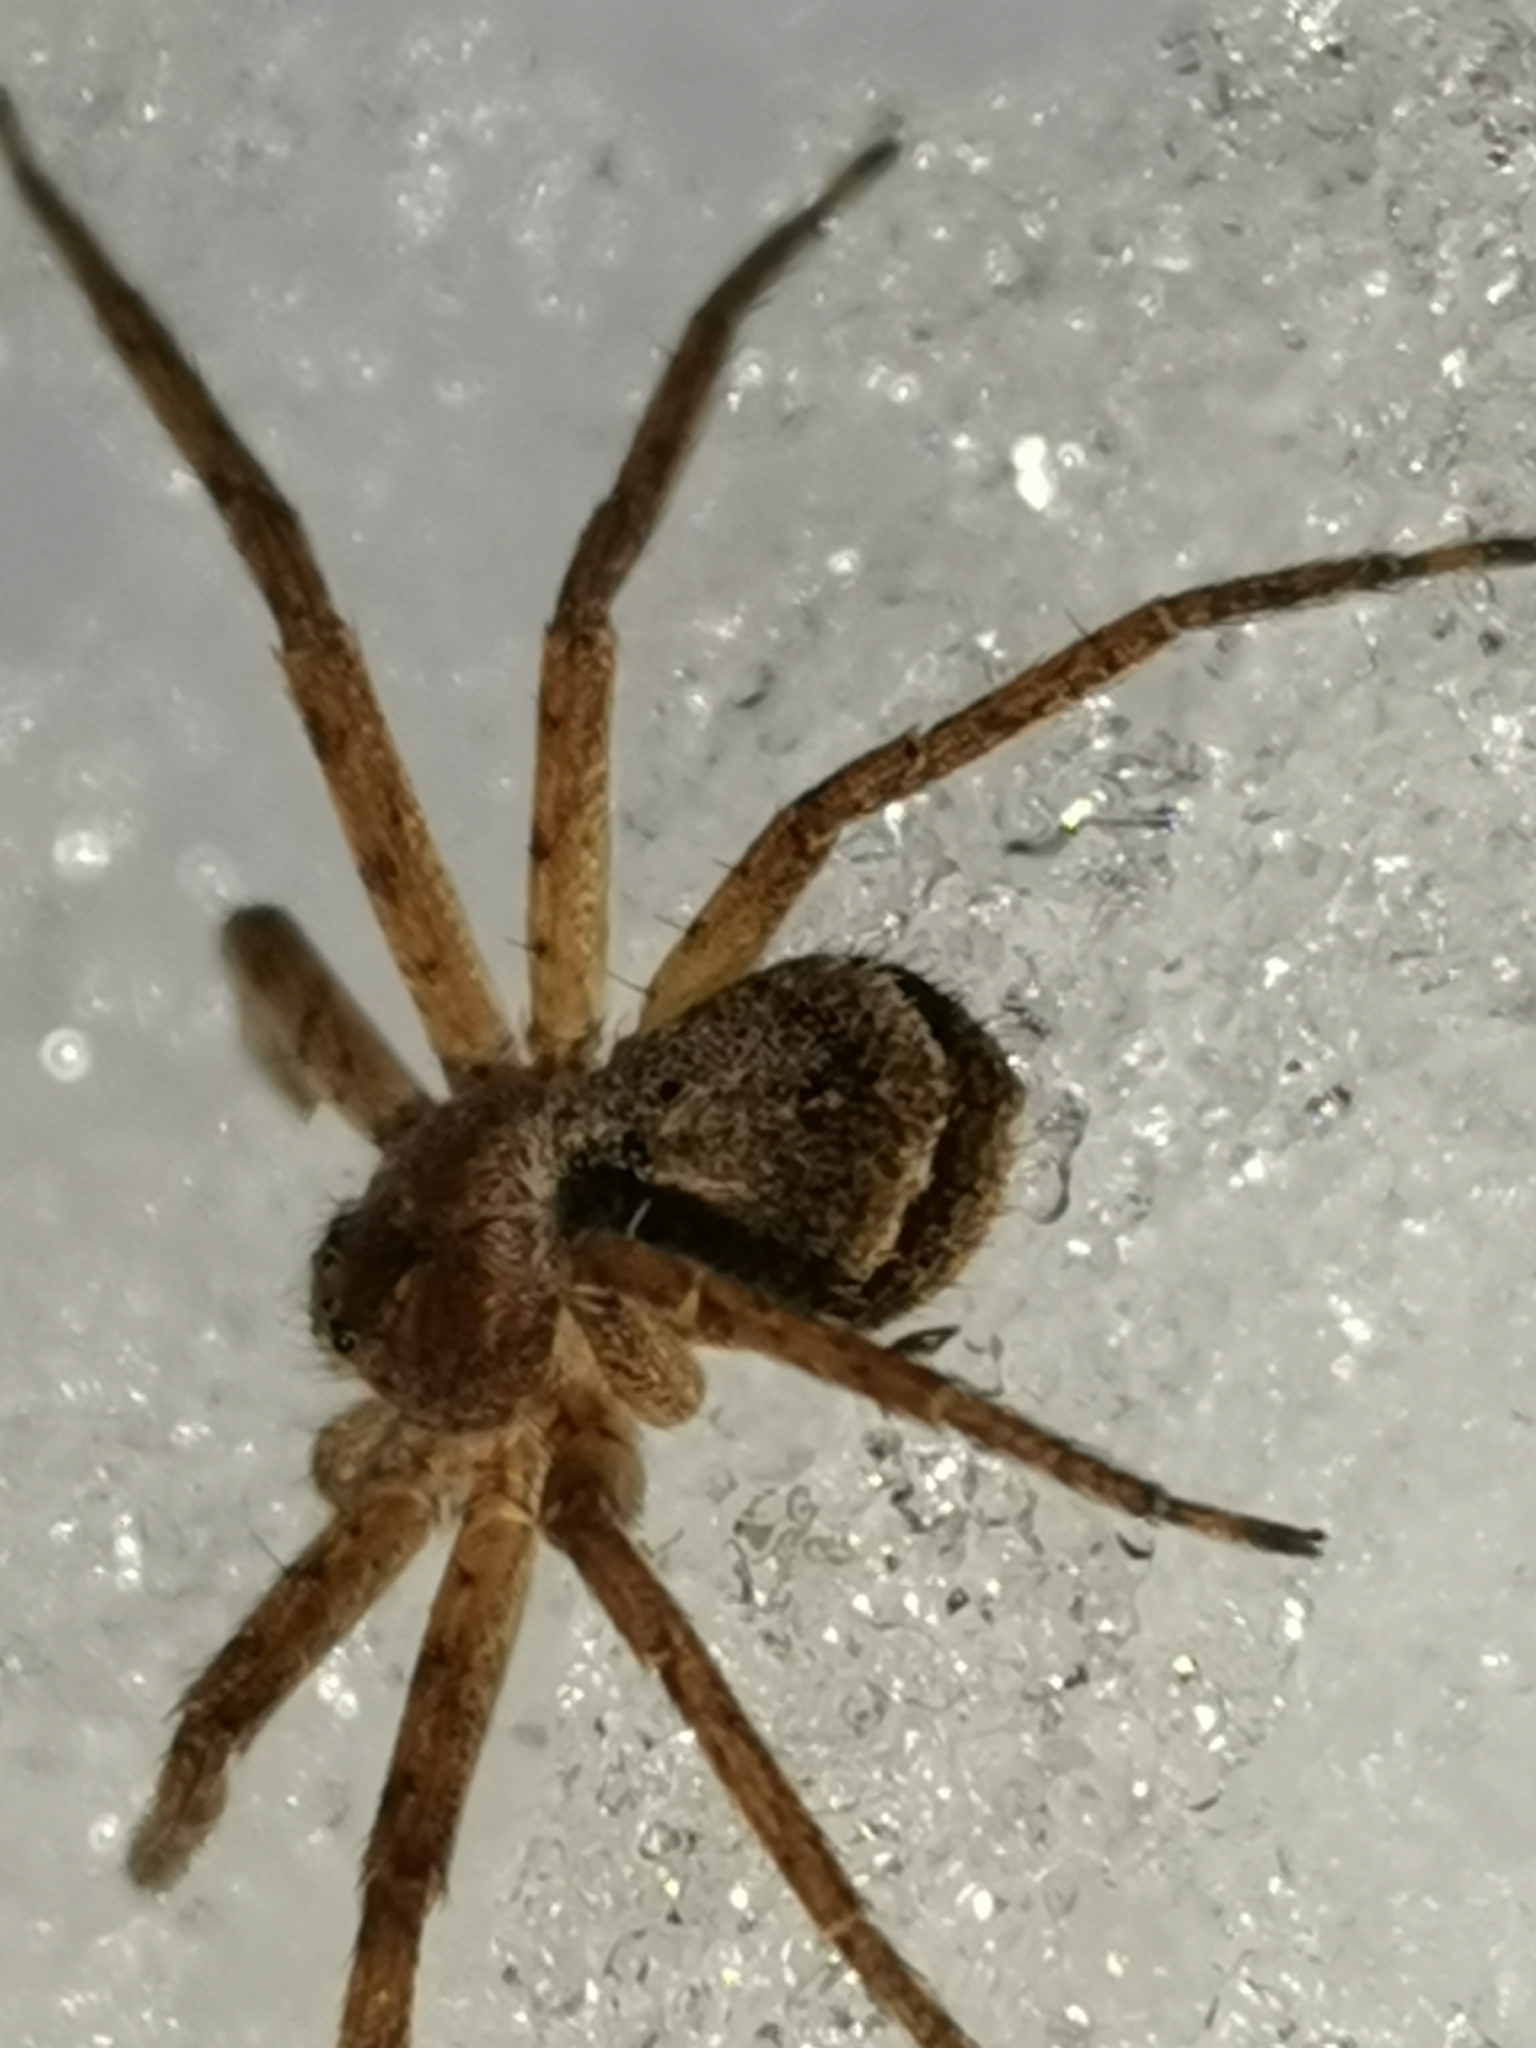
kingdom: Animalia
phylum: Arthropoda
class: Arachnida
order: Araneae
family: Philodromidae
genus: Philodromus
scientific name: Philodromus fuscomarginatus
